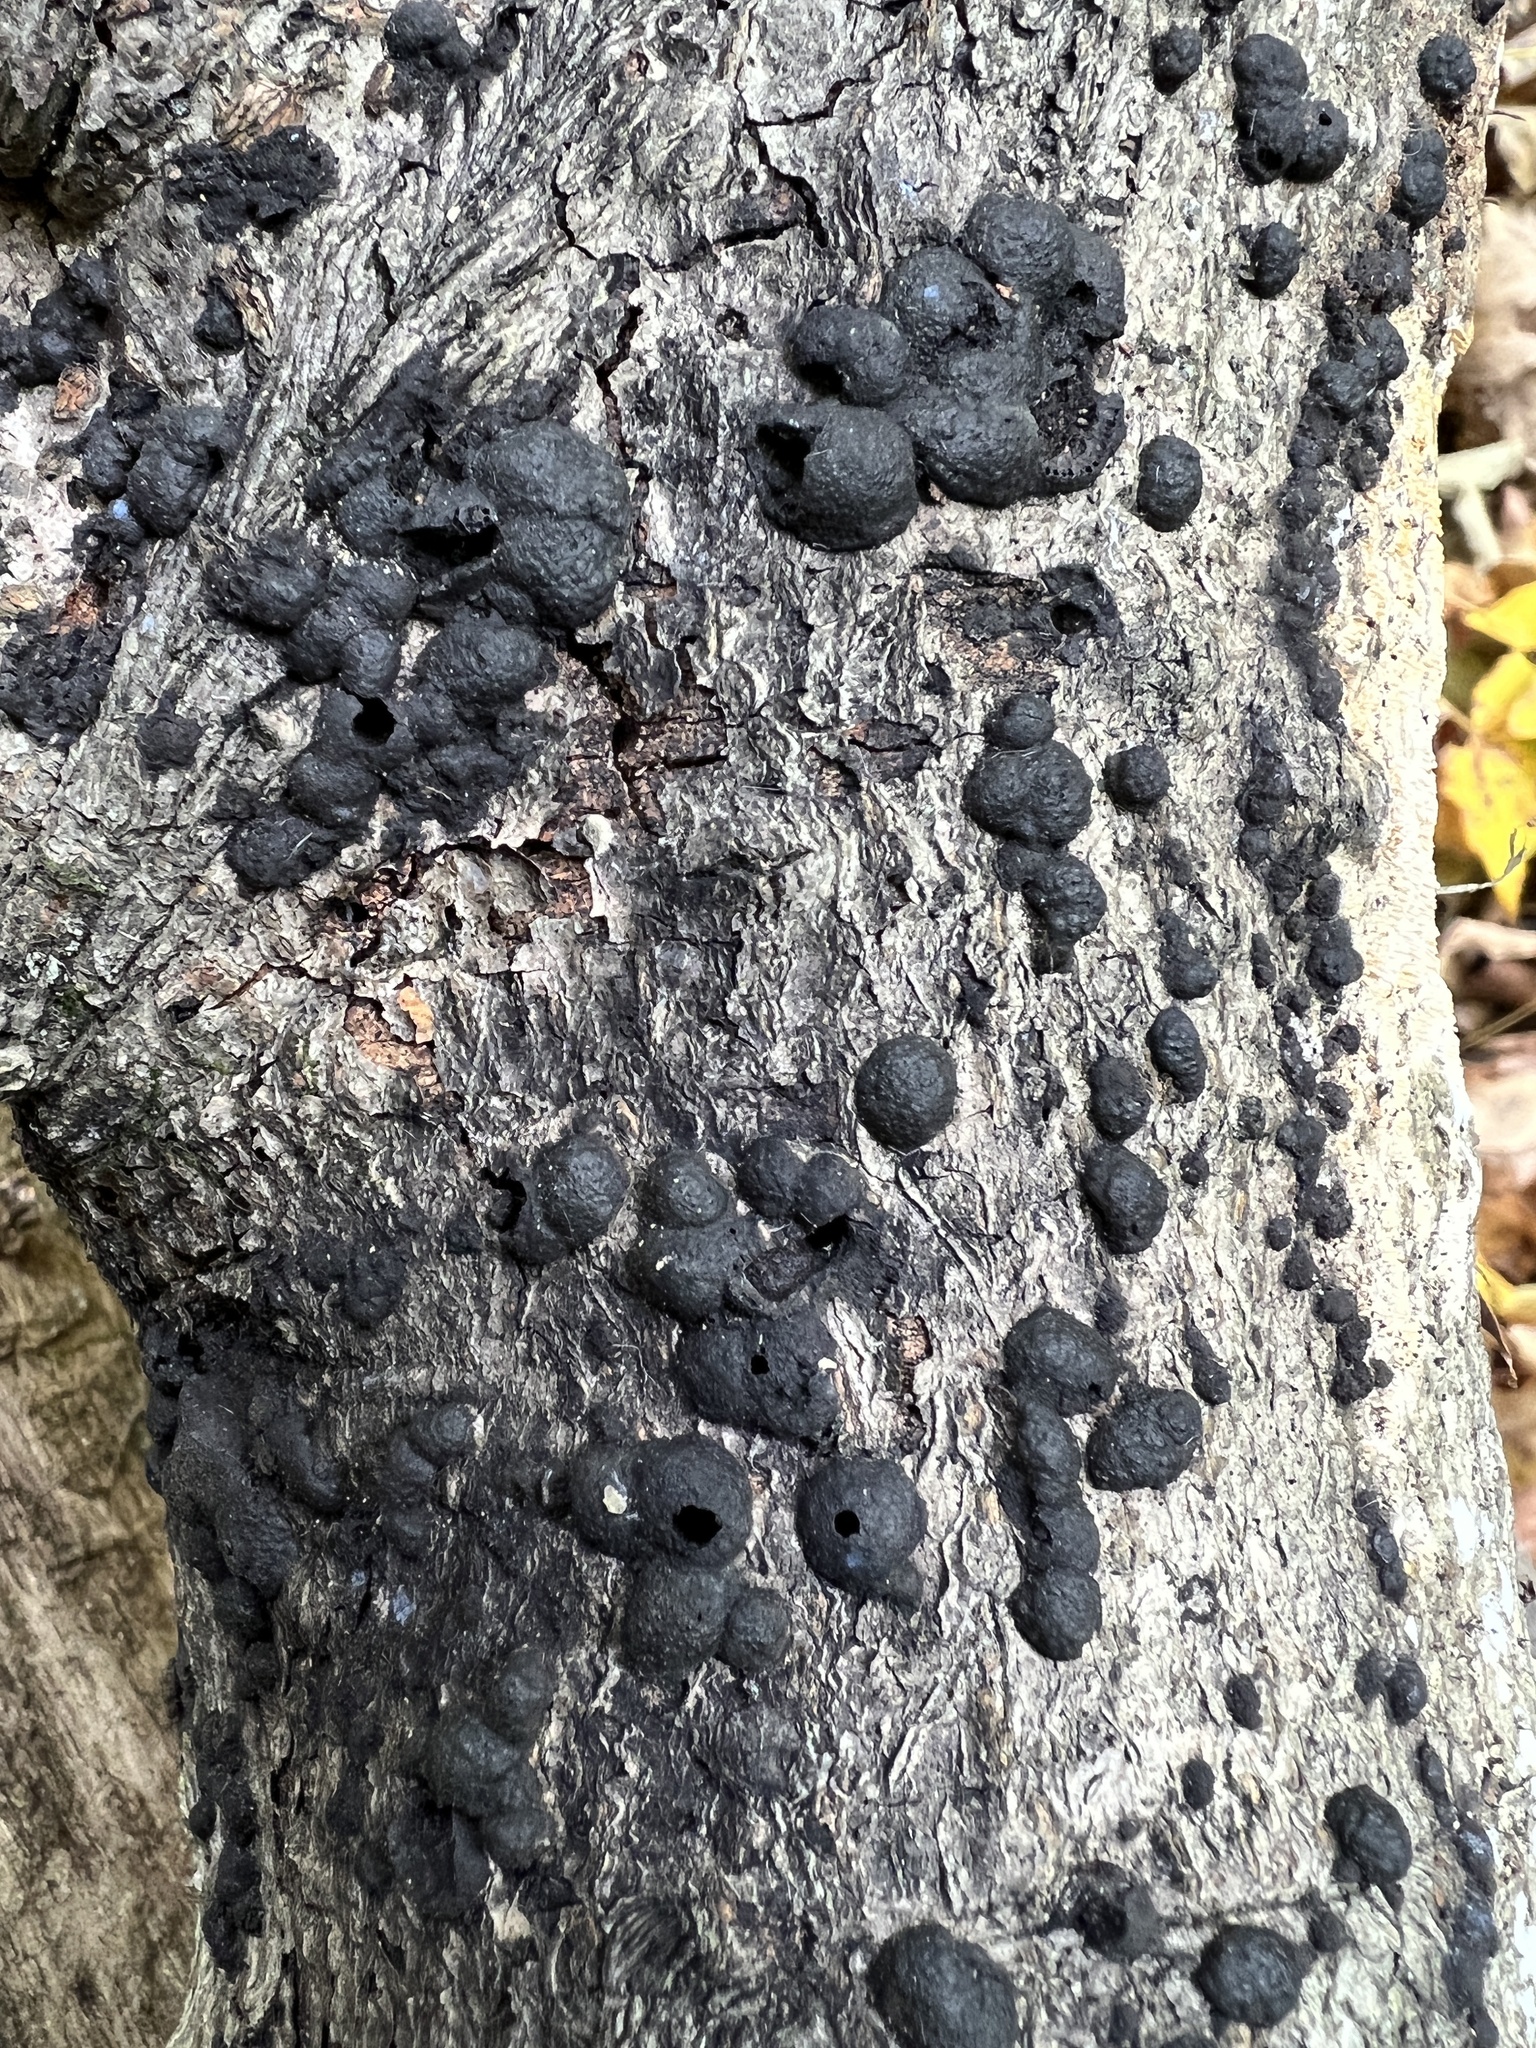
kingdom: Fungi
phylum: Ascomycota
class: Sordariomycetes
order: Xylariales
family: Hypoxylaceae
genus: Annulohypoxylon
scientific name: Annulohypoxylon annulatum
